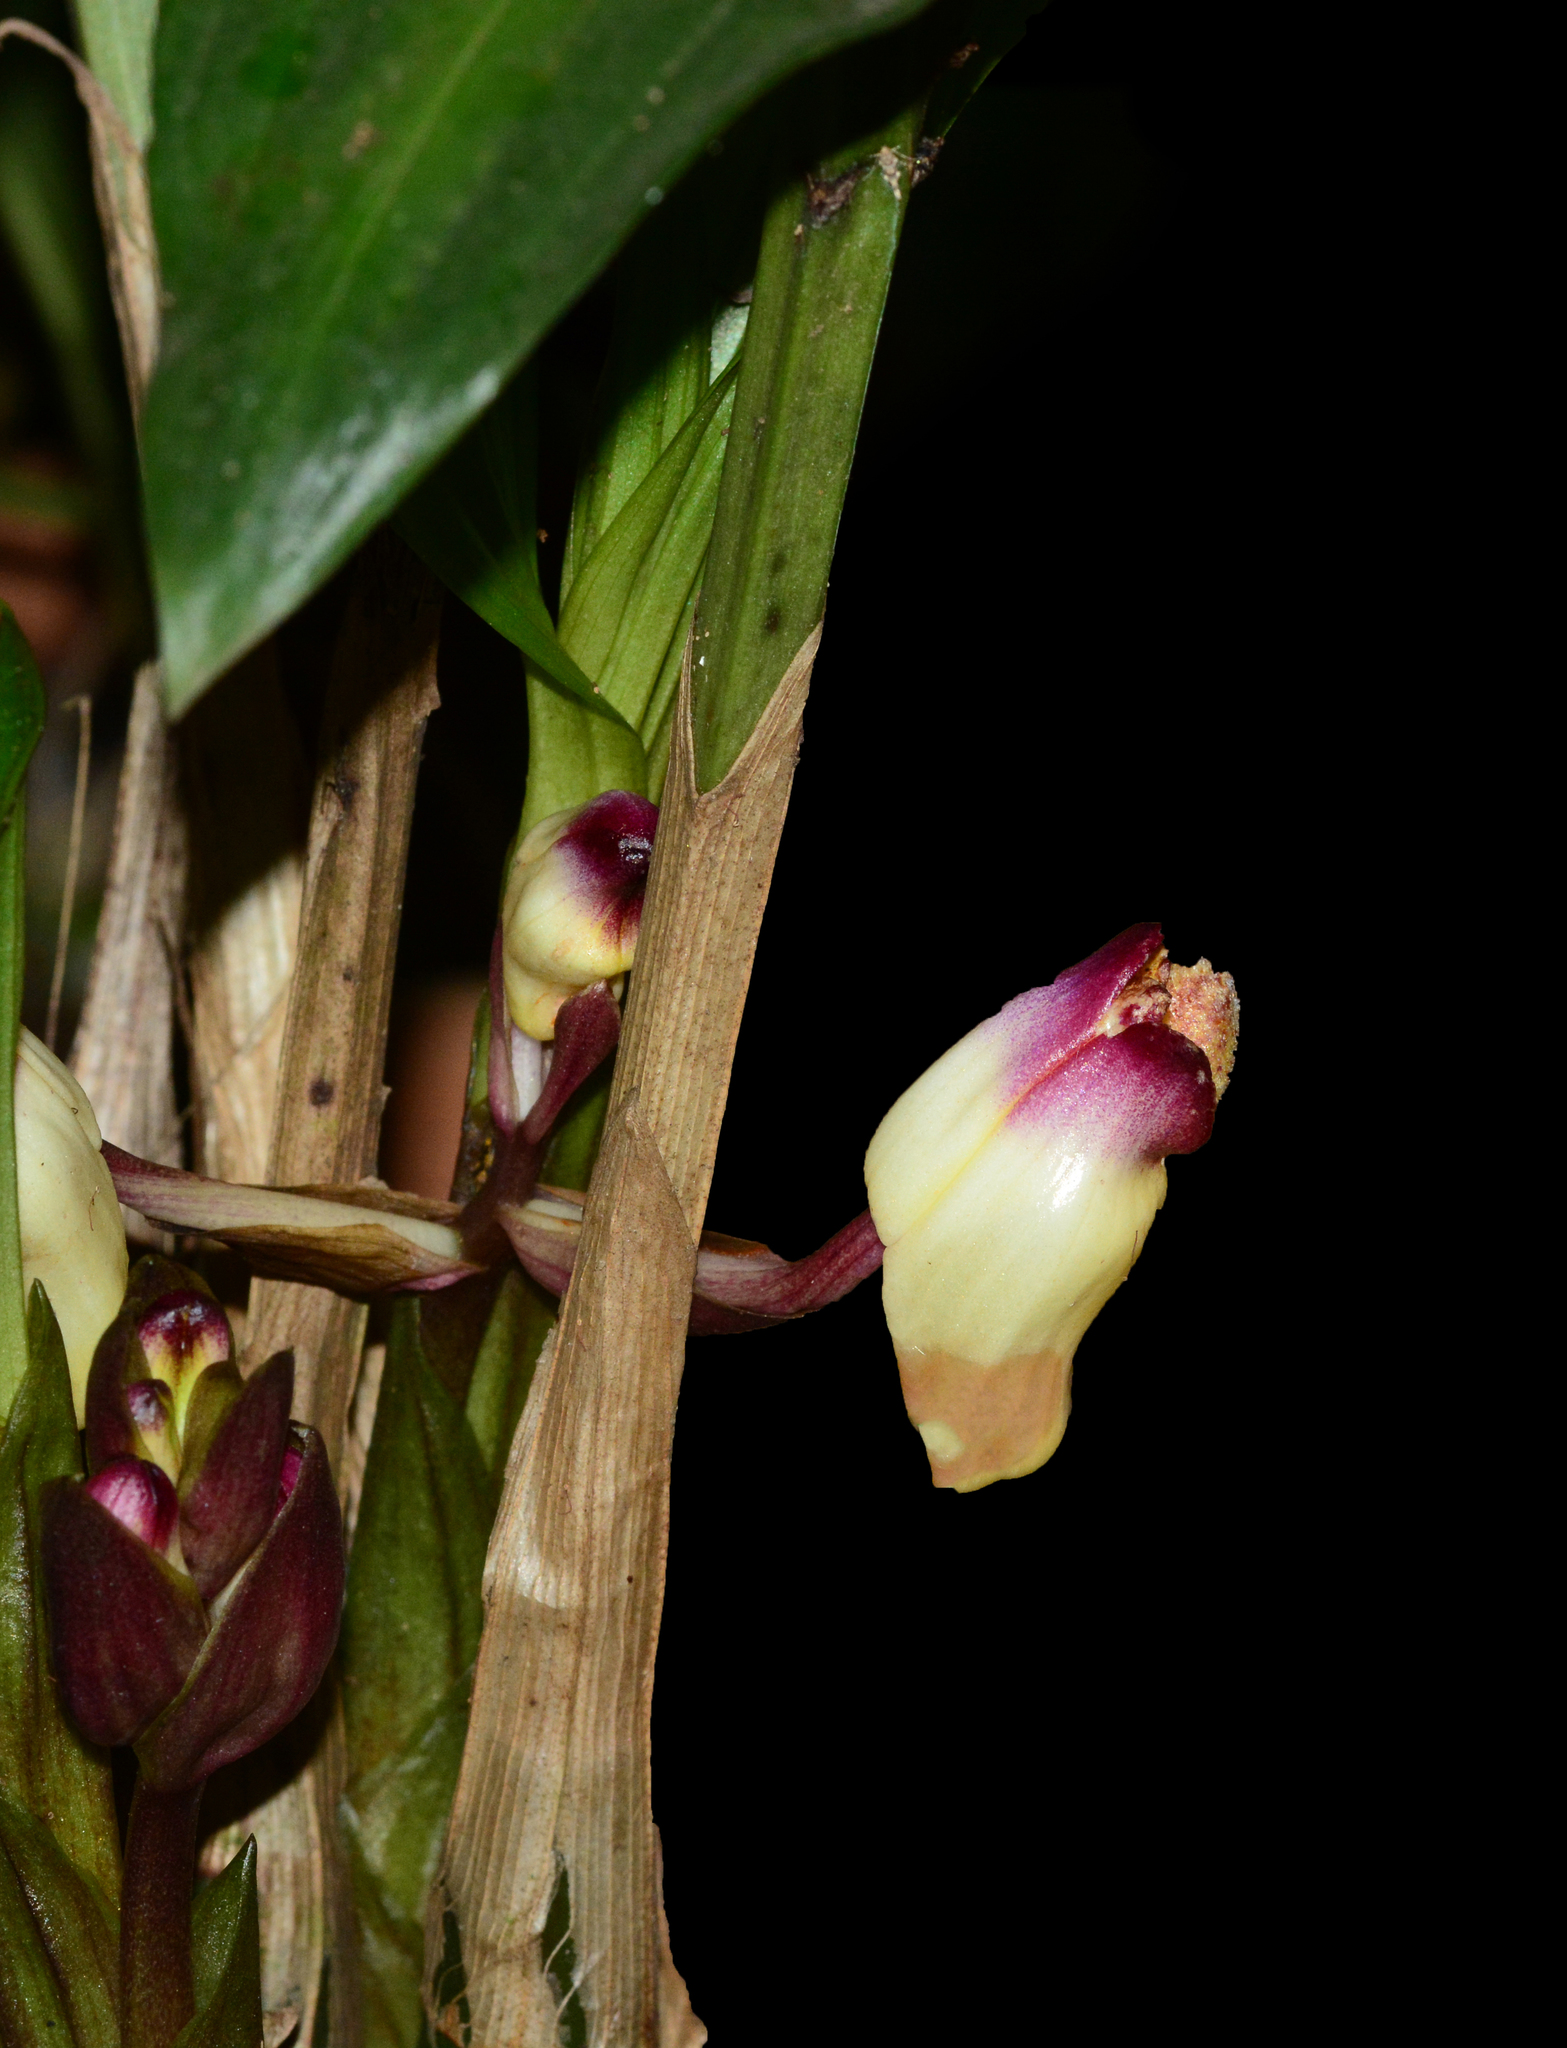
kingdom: Plantae
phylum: Tracheophyta
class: Liliopsida
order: Asparagales
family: Orchidaceae
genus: Acanthophippium
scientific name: Acanthophippium bicolor
